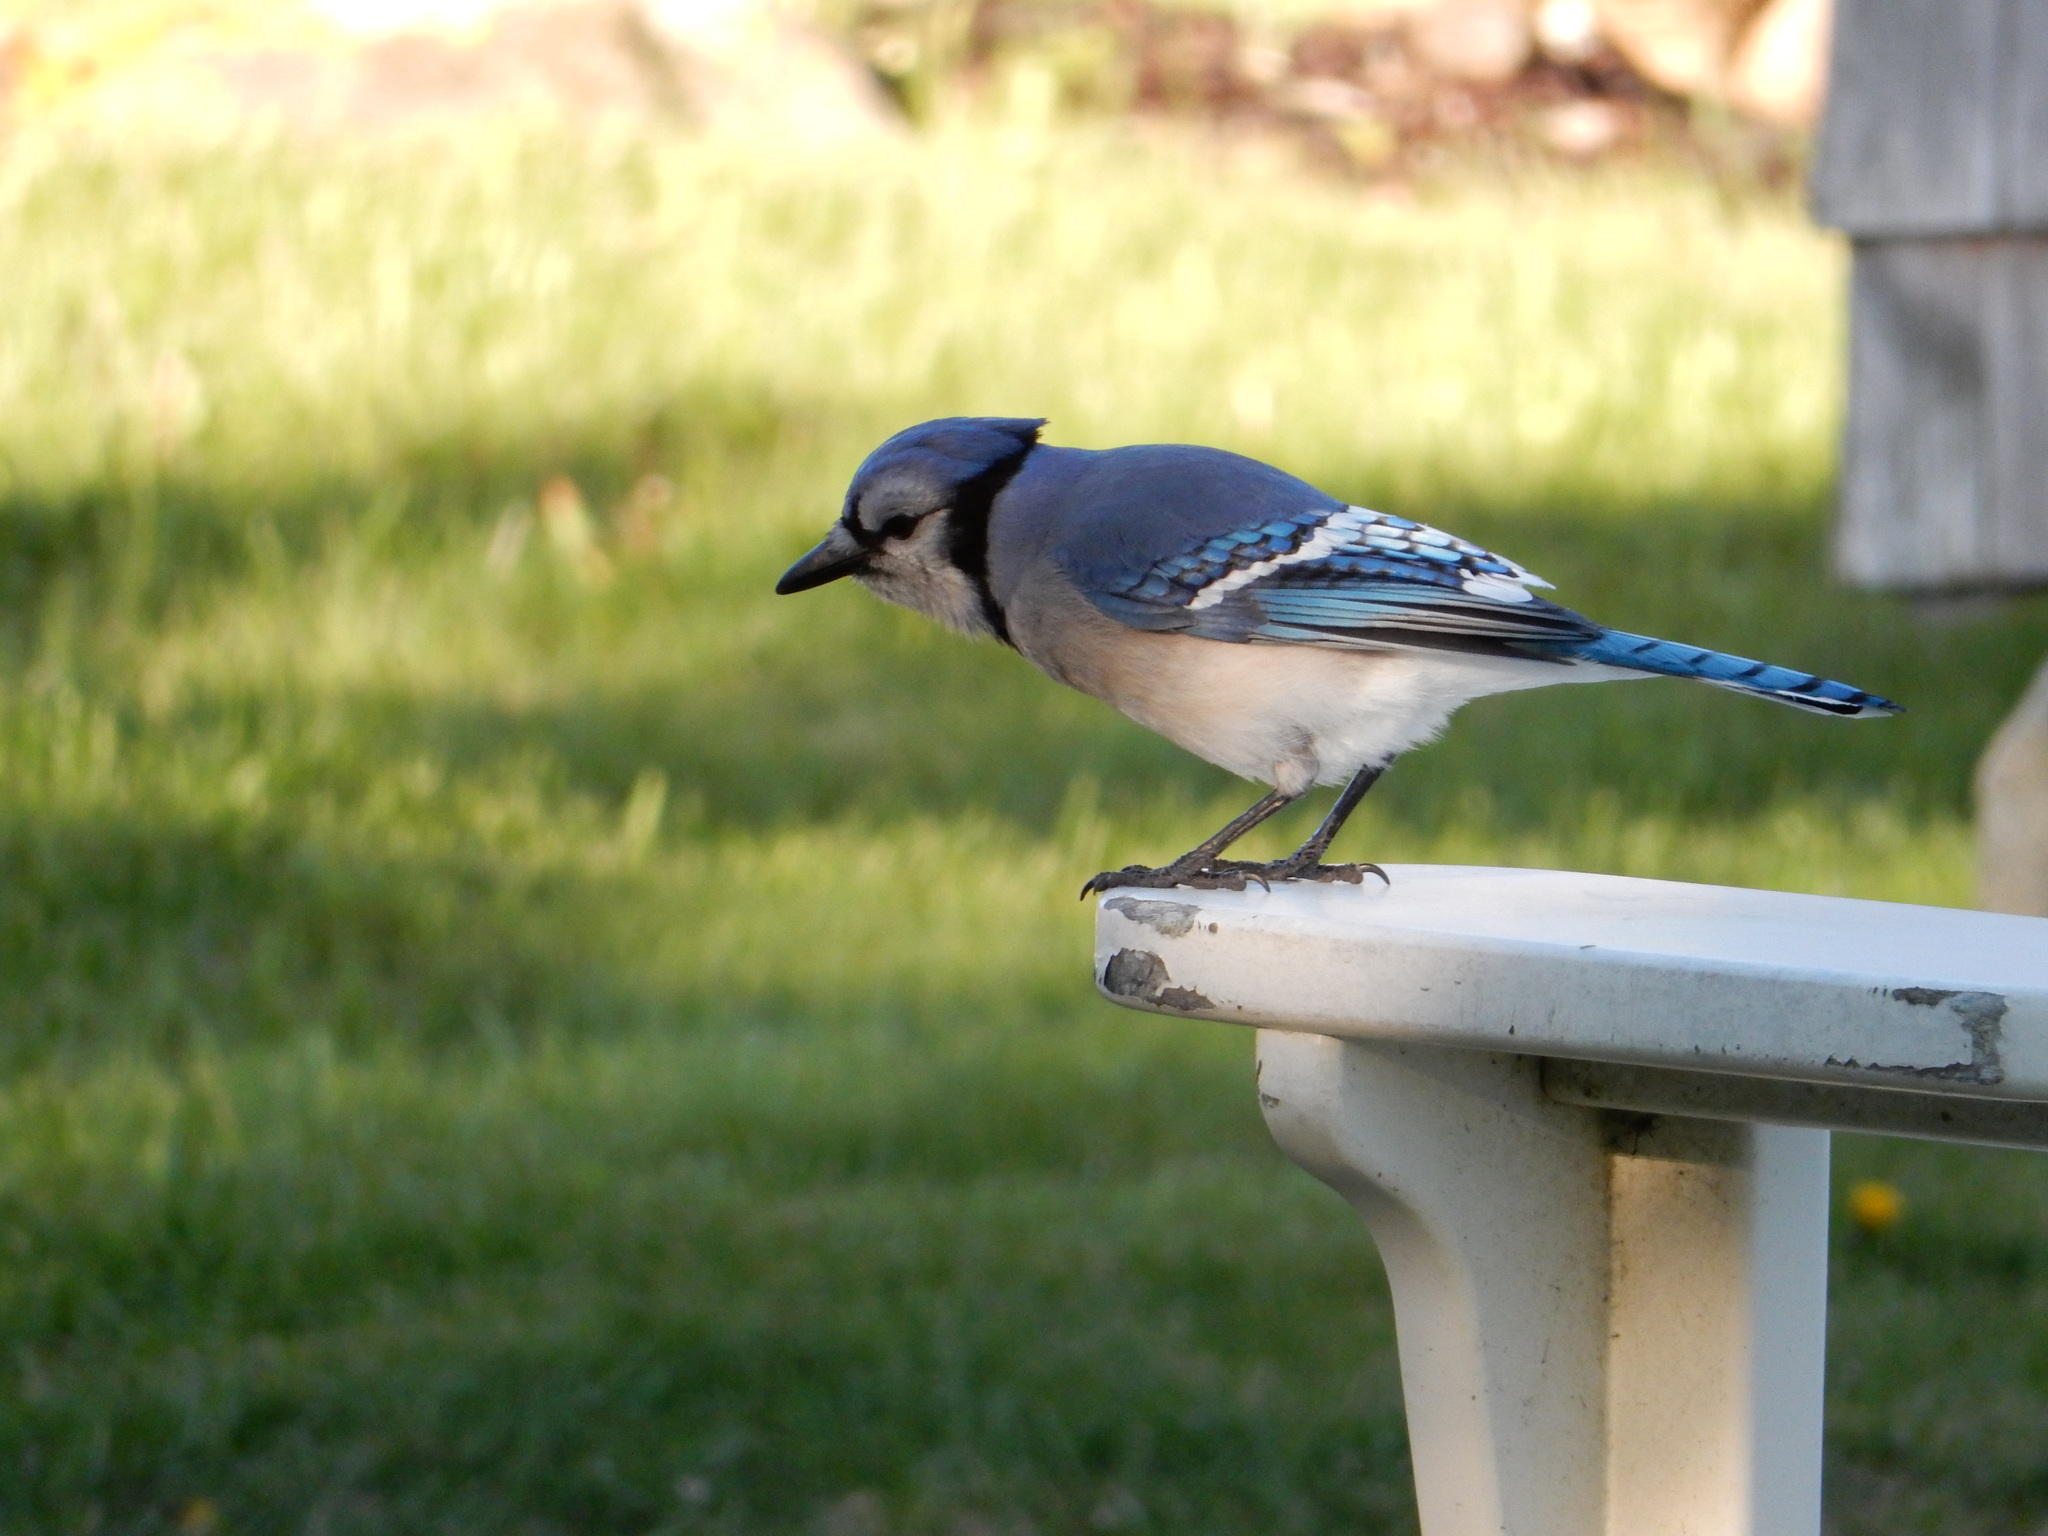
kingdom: Animalia
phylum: Chordata
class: Aves
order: Passeriformes
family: Corvidae
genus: Cyanocitta
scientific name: Cyanocitta cristata
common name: Blue jay
